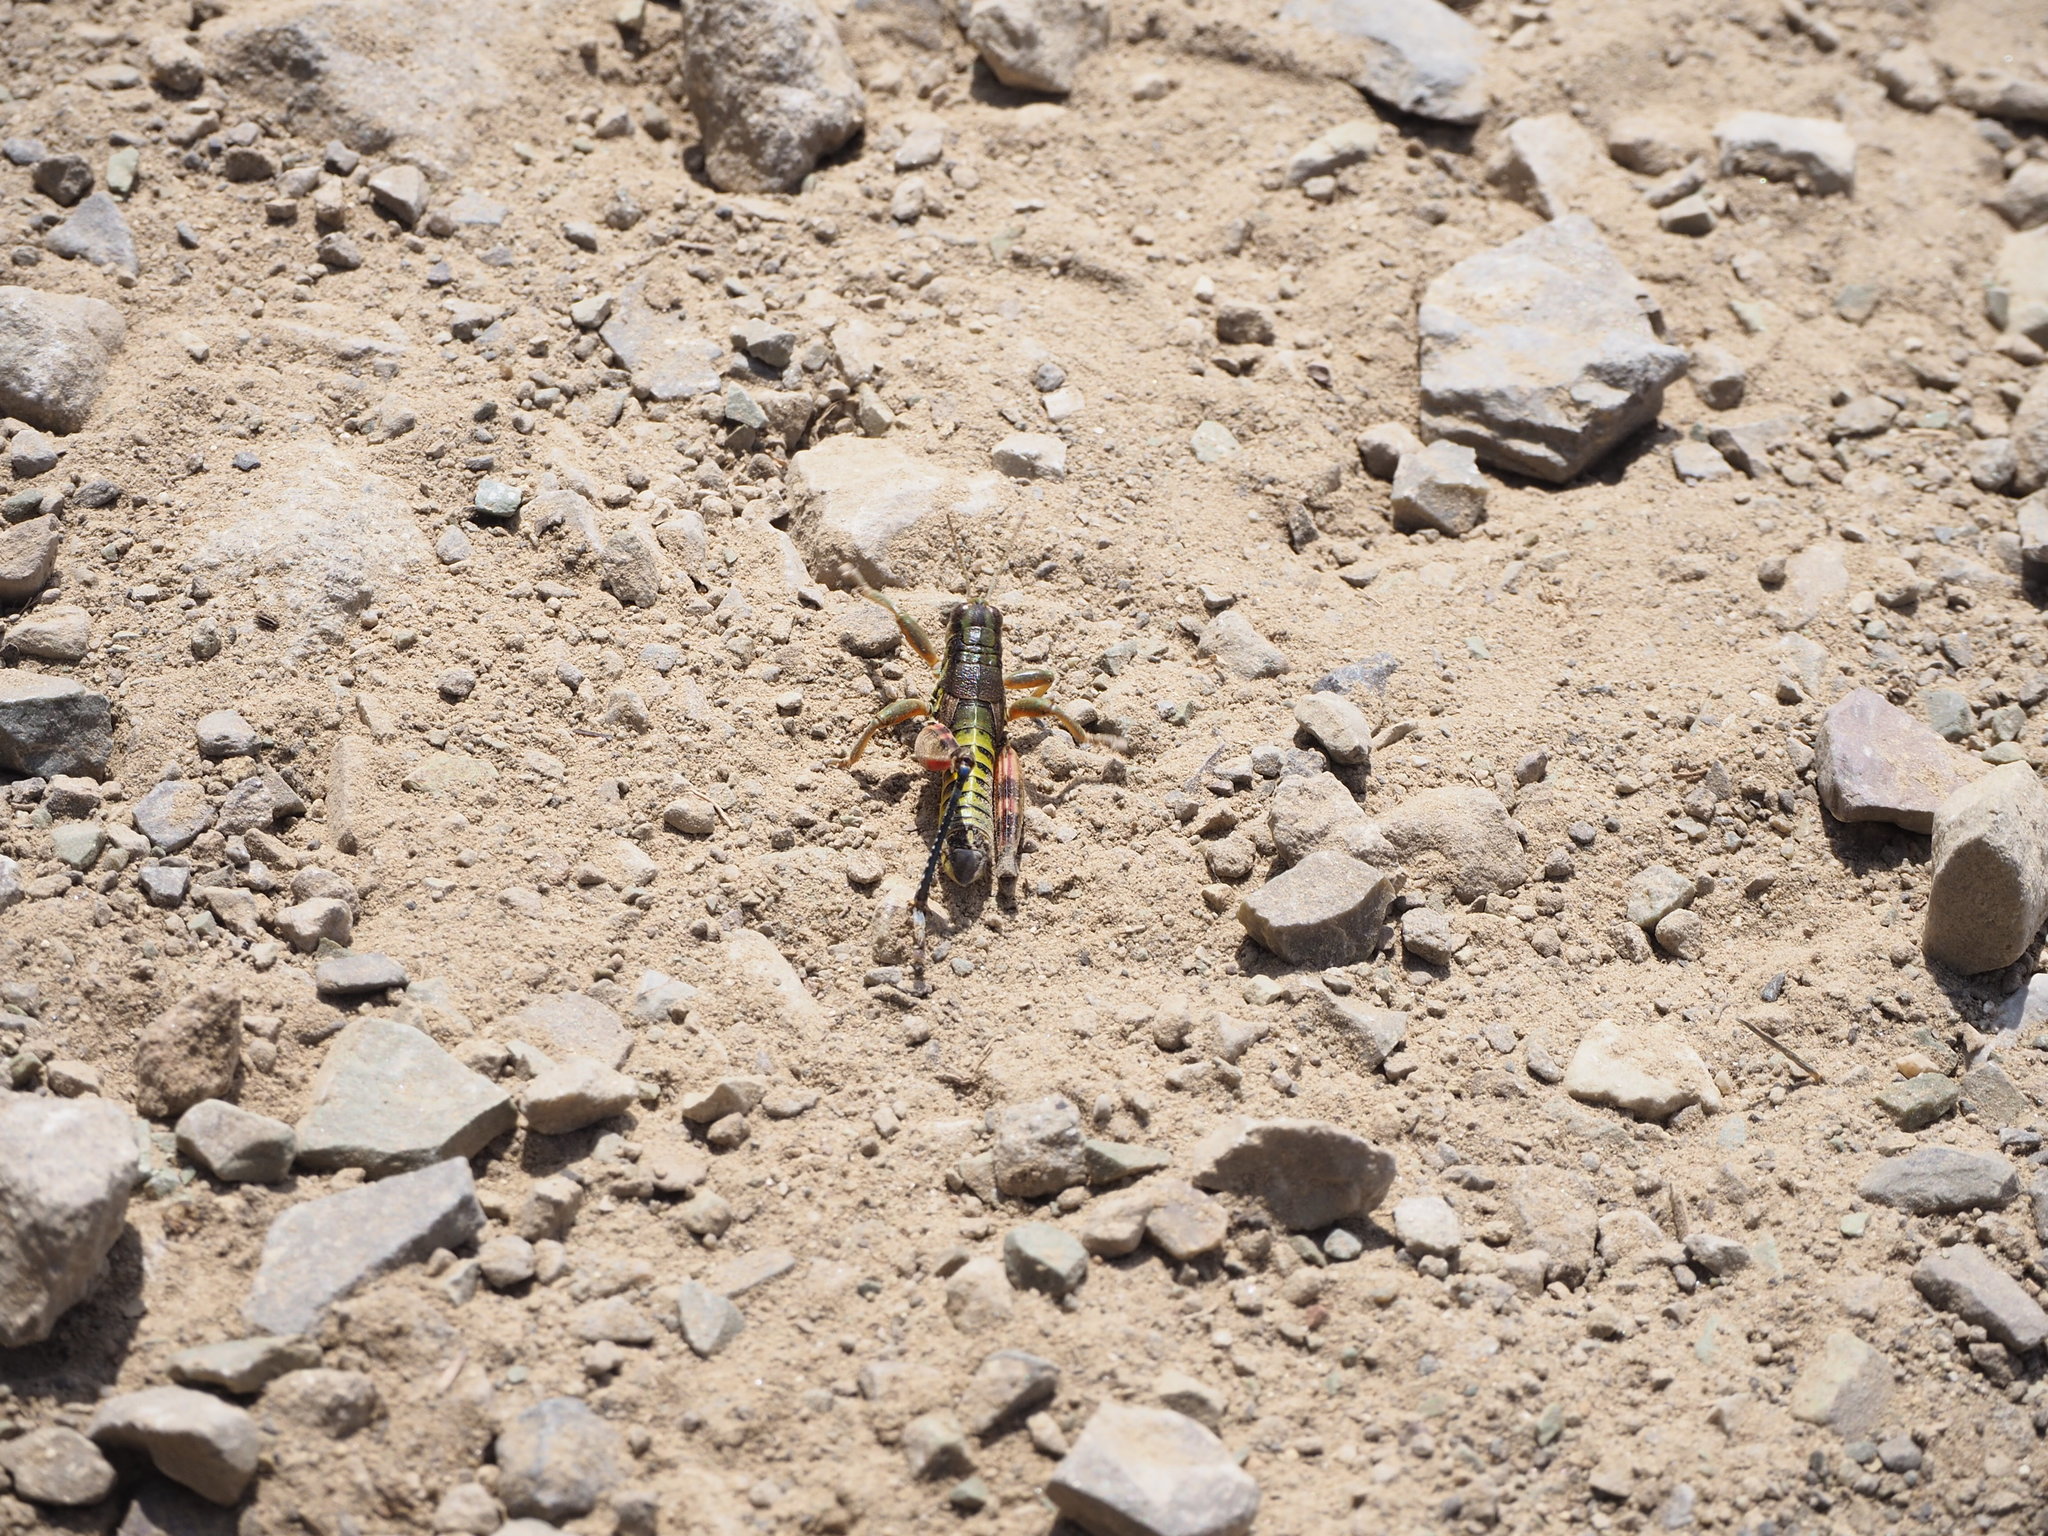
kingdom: Animalia
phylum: Arthropoda
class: Insecta
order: Orthoptera
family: Acrididae
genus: Podisma
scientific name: Podisma emiliae
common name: Emilia mountain grasshopper
